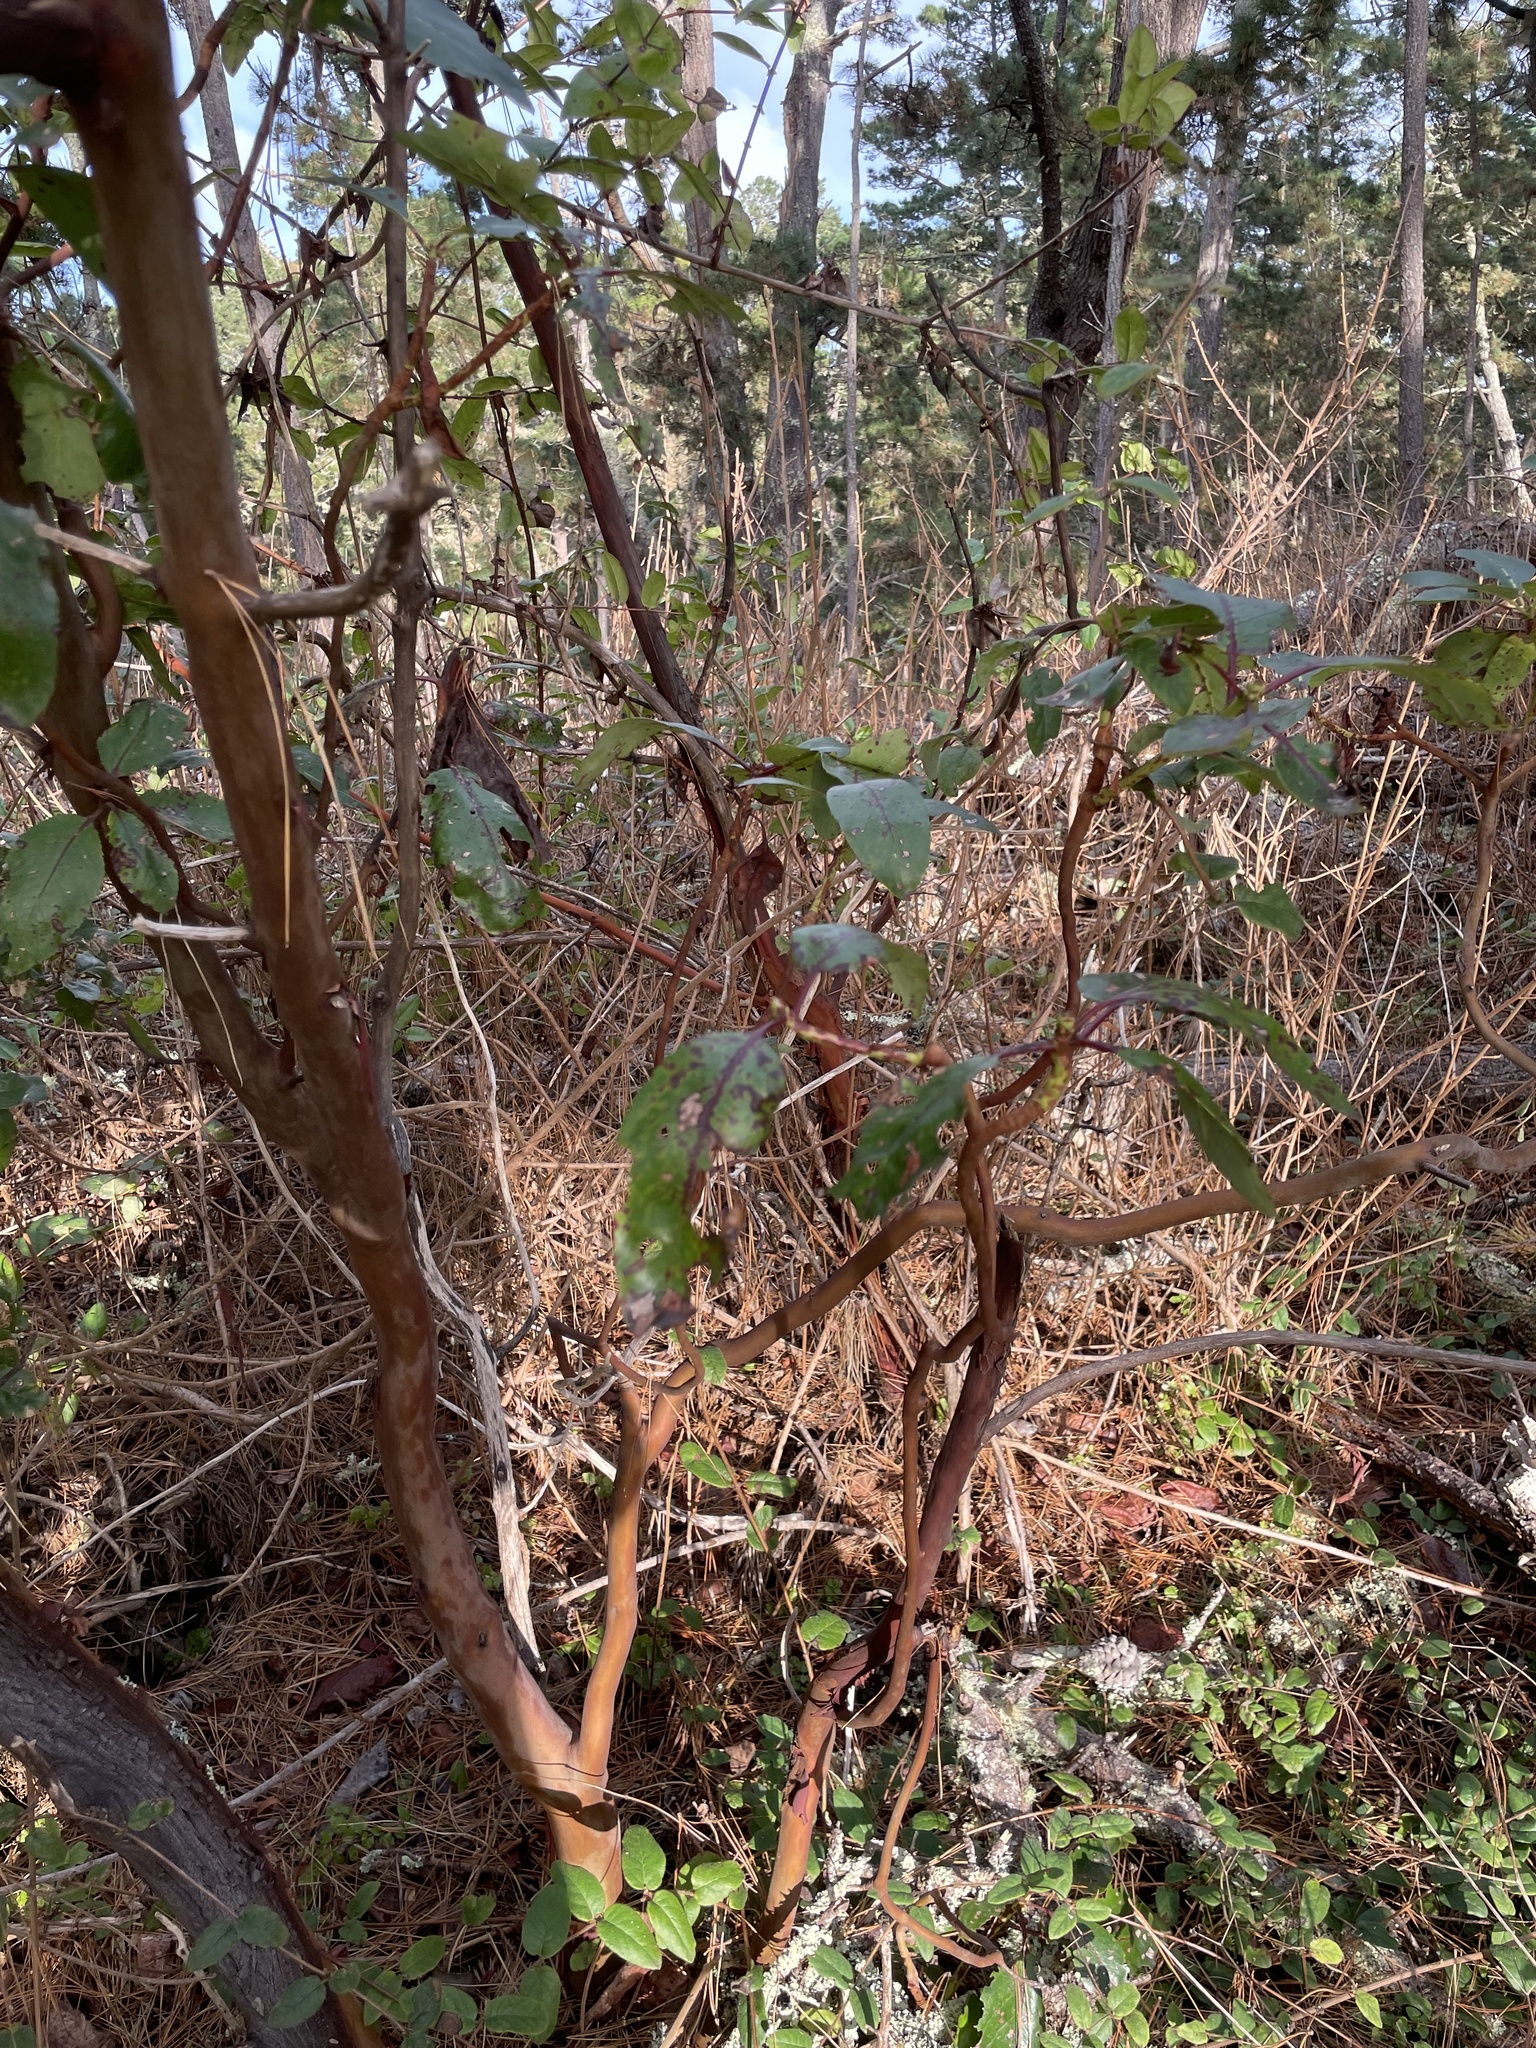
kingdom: Plantae
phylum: Tracheophyta
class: Magnoliopsida
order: Ericales
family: Ericaceae
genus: Arbutus
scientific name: Arbutus menziesii
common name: Pacific madrone
